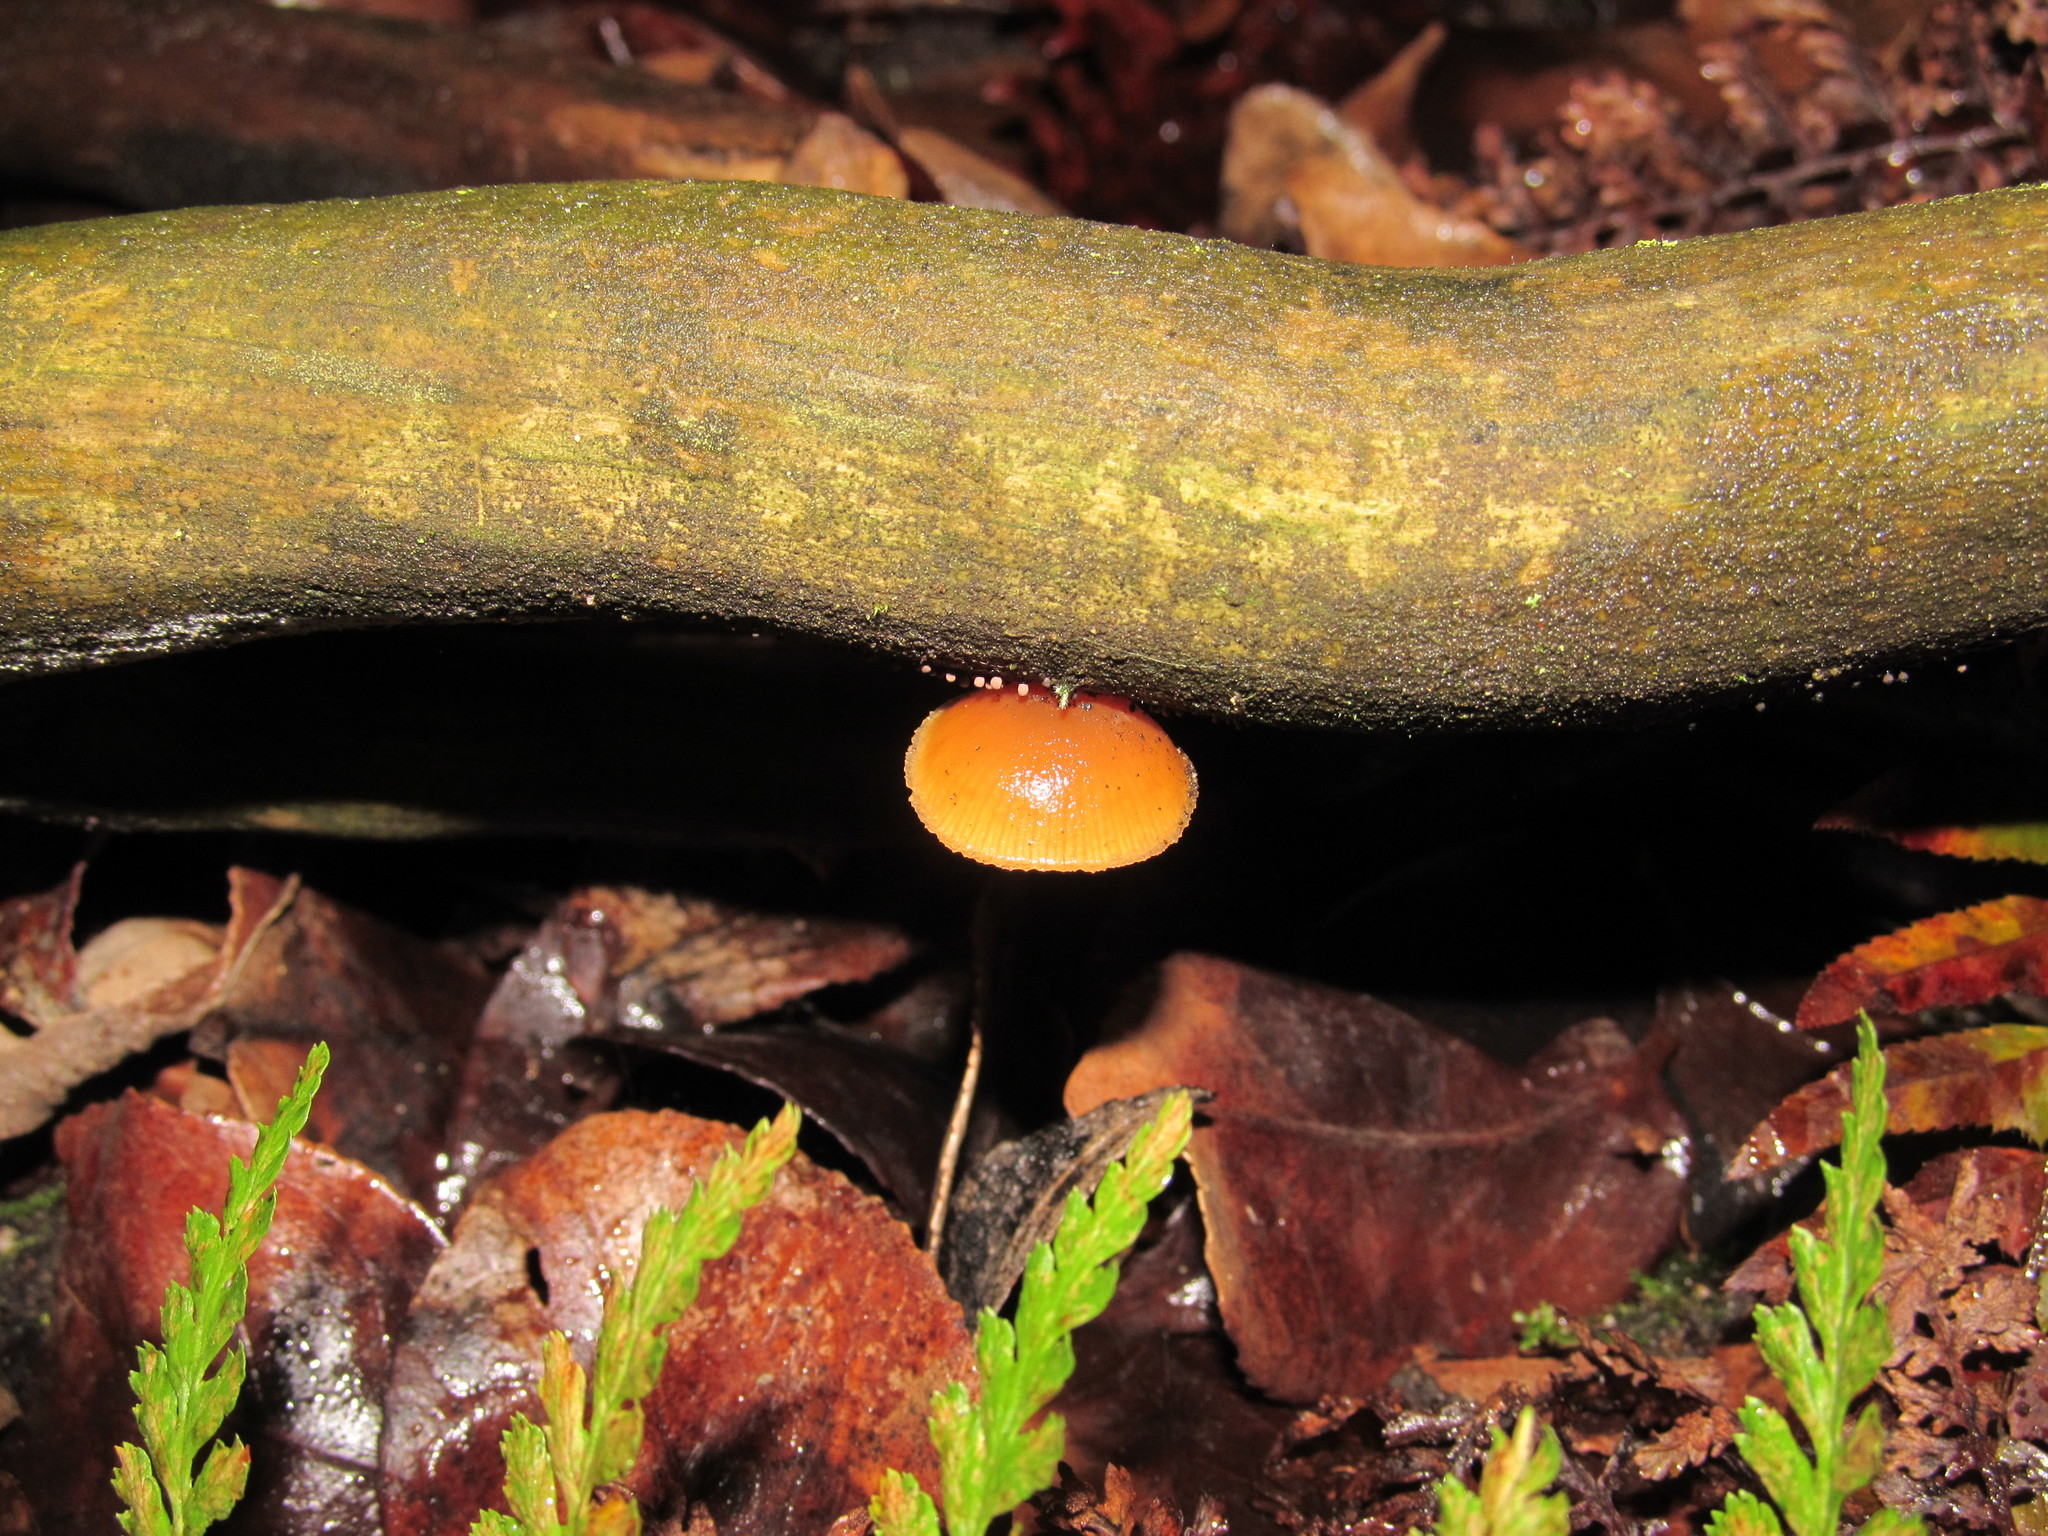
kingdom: Fungi
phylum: Basidiomycota
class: Agaricomycetes
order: Agaricales
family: Hymenogastraceae
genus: Galerina
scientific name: Galerina marginata
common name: Funeral bell
